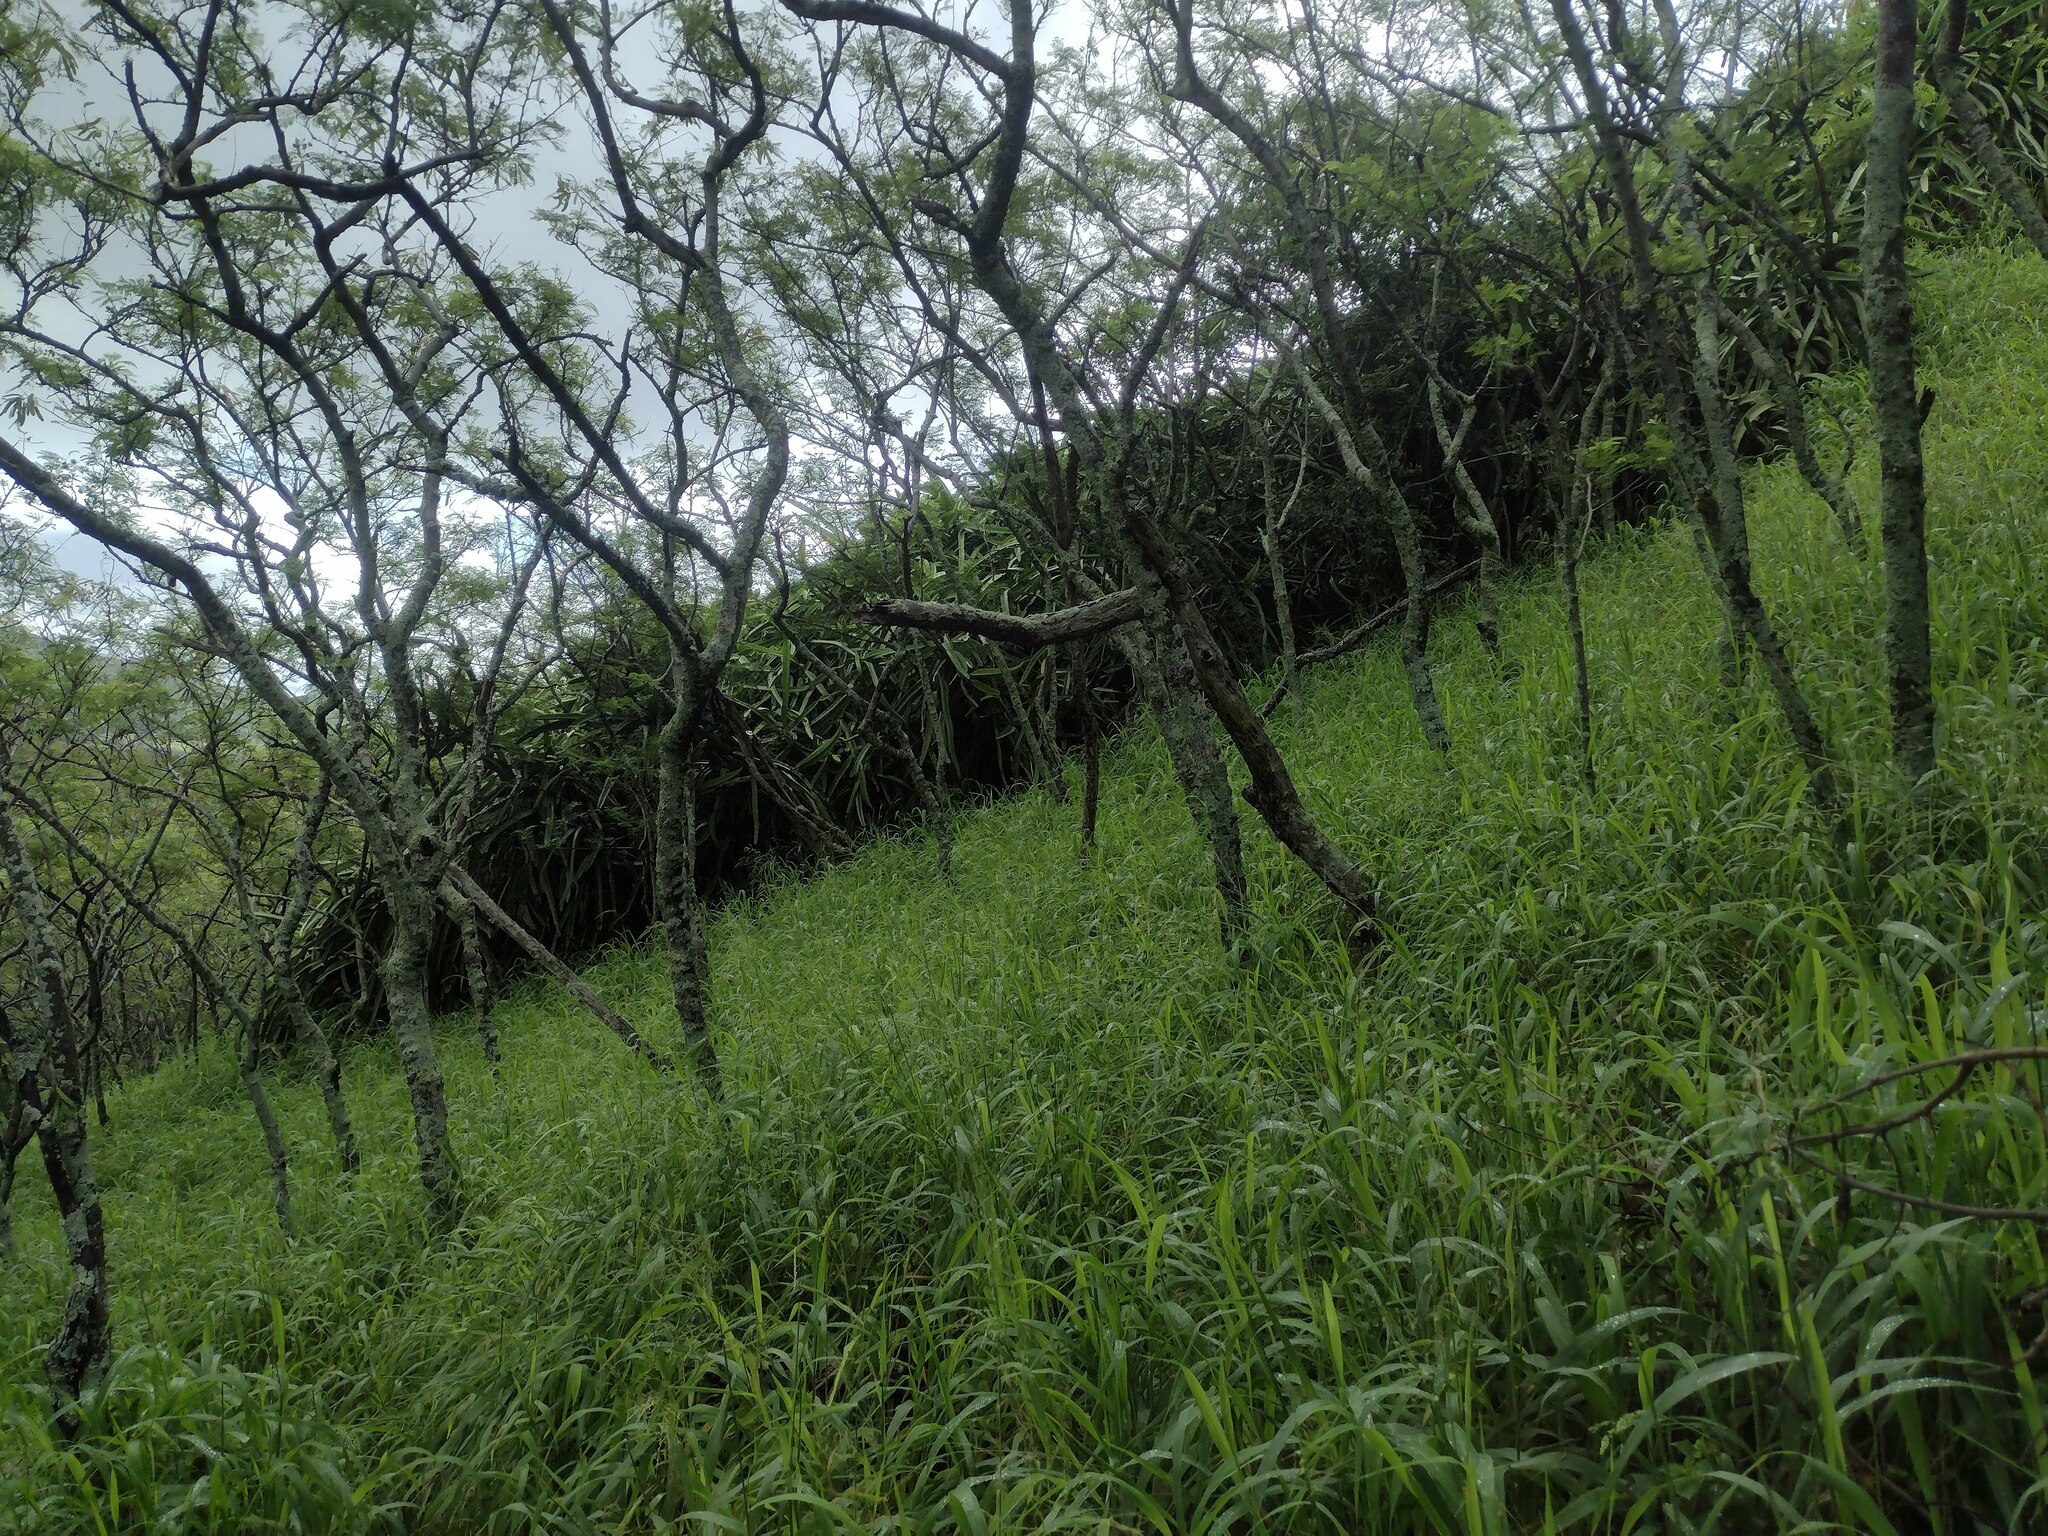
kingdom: Plantae
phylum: Tracheophyta
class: Magnoliopsida
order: Caryophyllales
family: Cactaceae
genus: Selenicereus
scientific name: Selenicereus undatus
